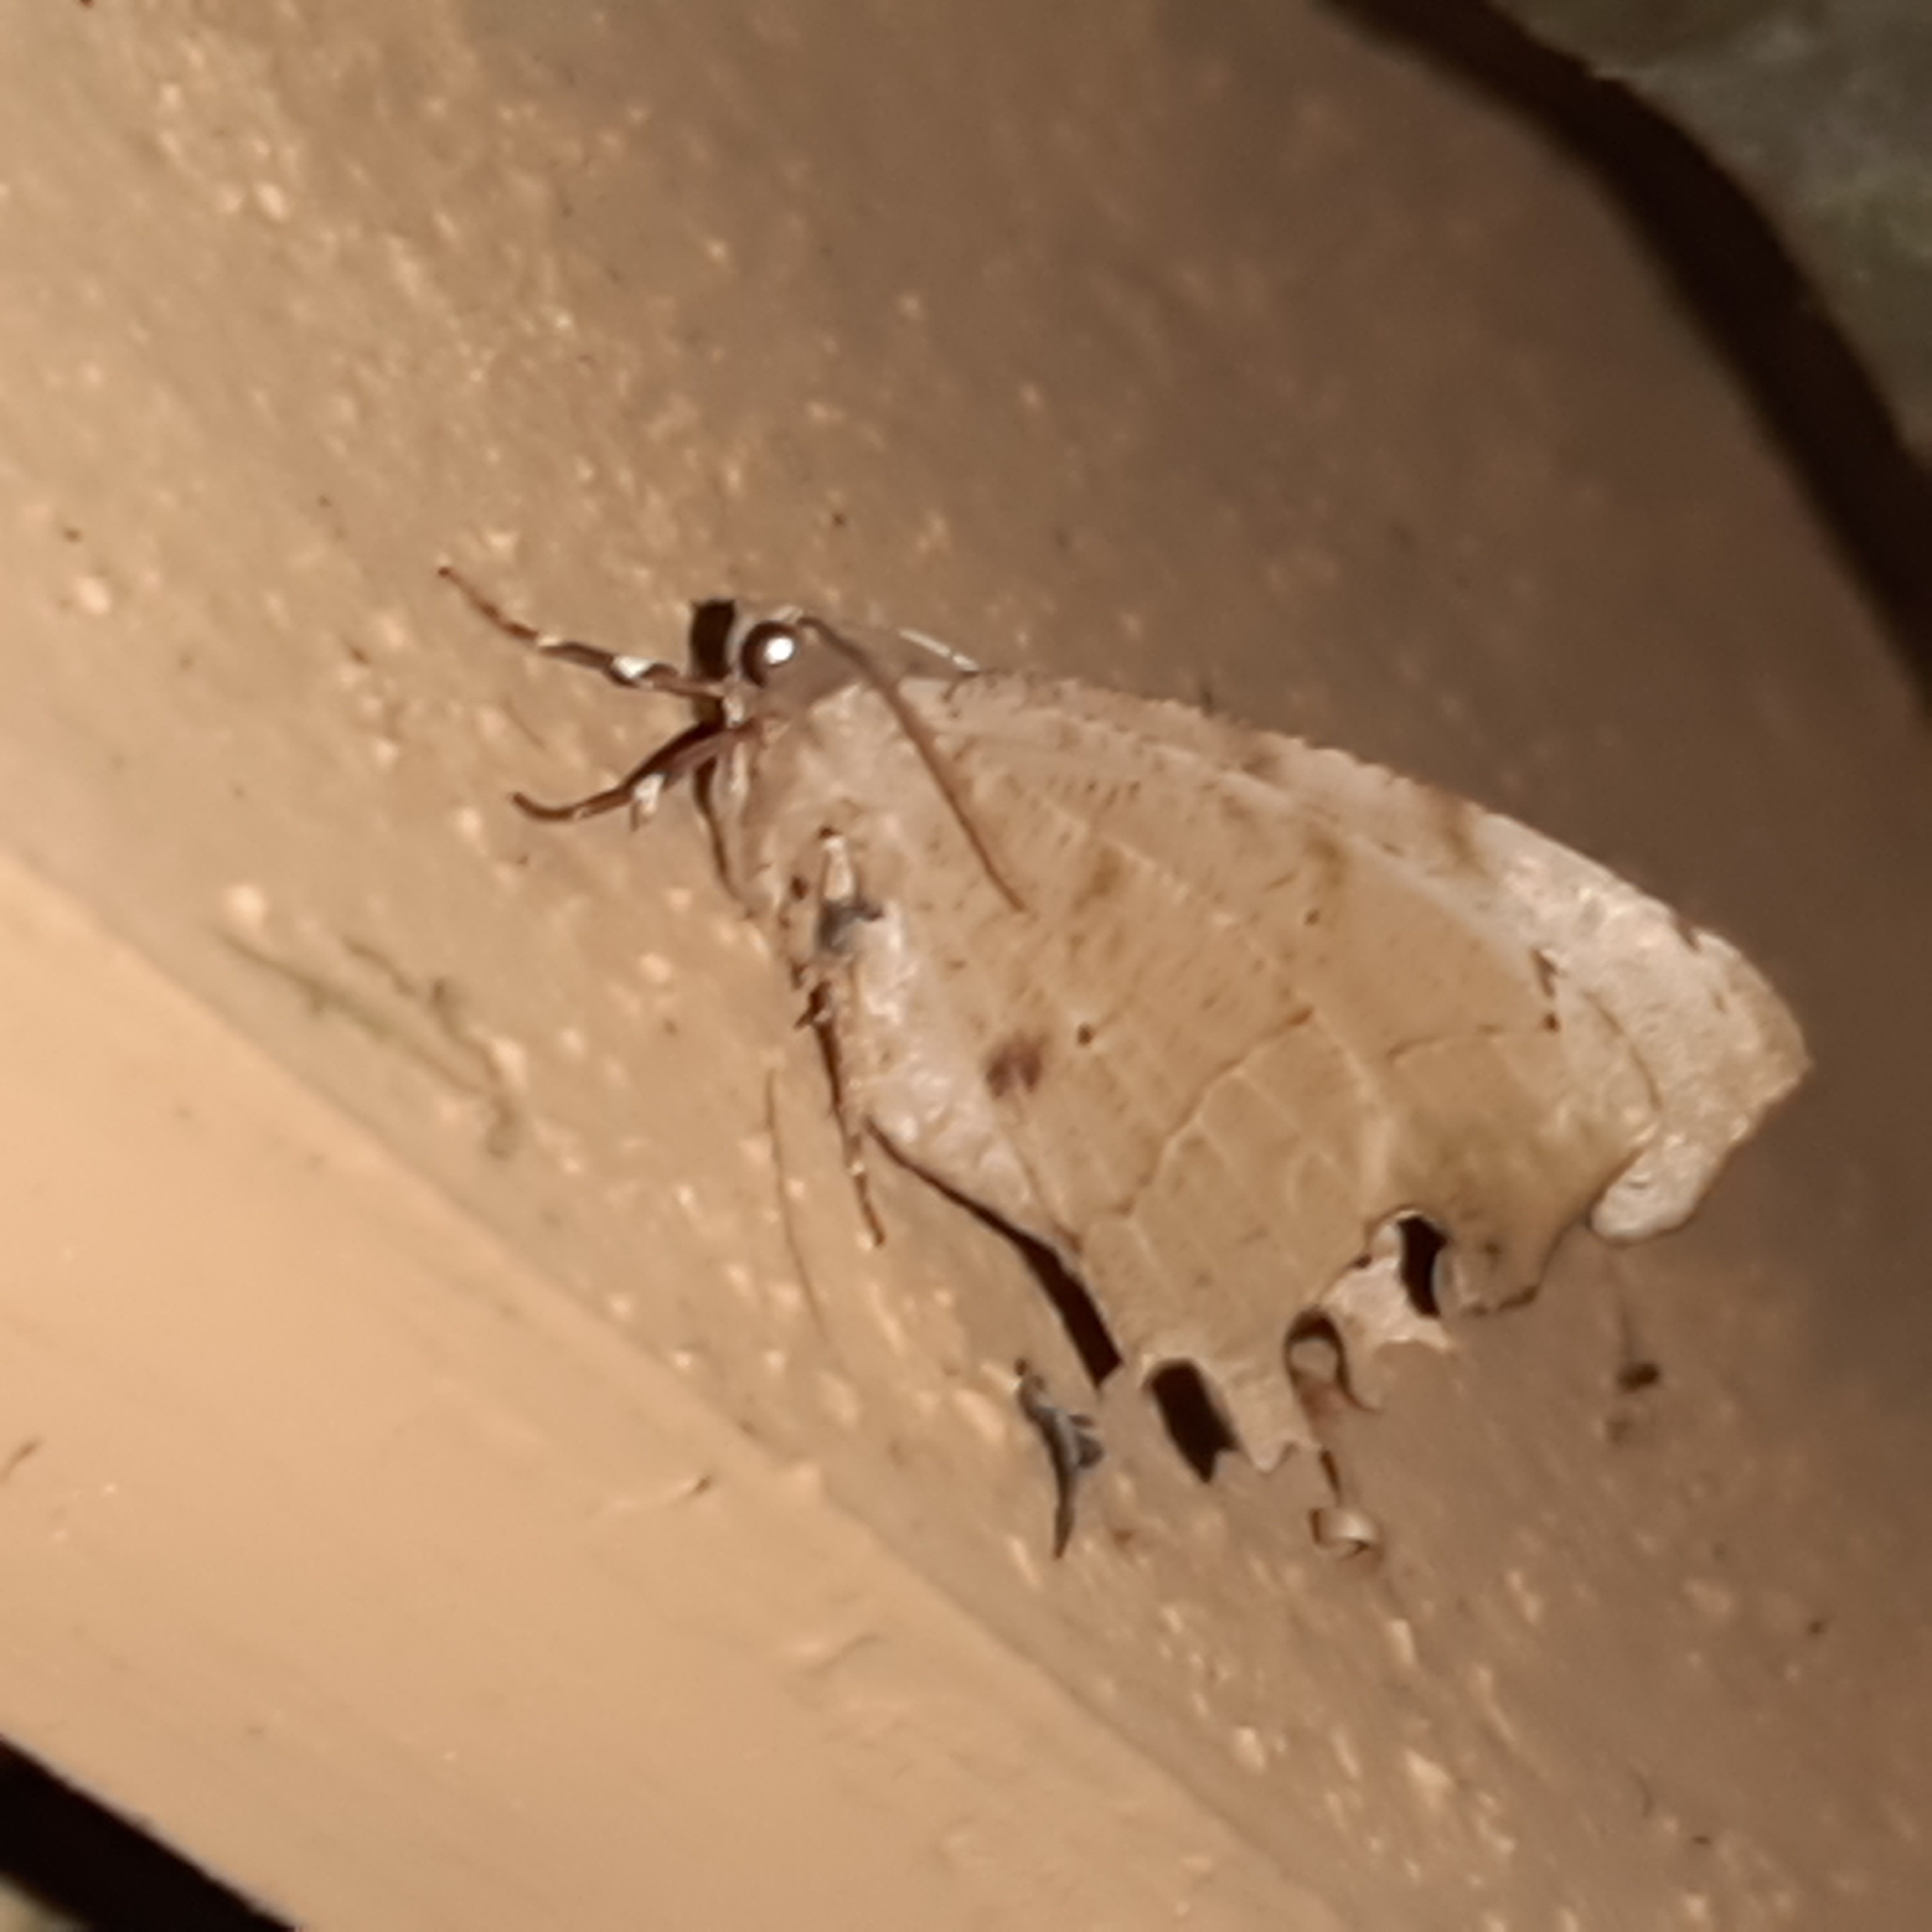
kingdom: Animalia
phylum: Arthropoda
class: Insecta
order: Lepidoptera
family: Geometridae
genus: Phyllodonta
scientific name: Phyllodonta indeterminata
